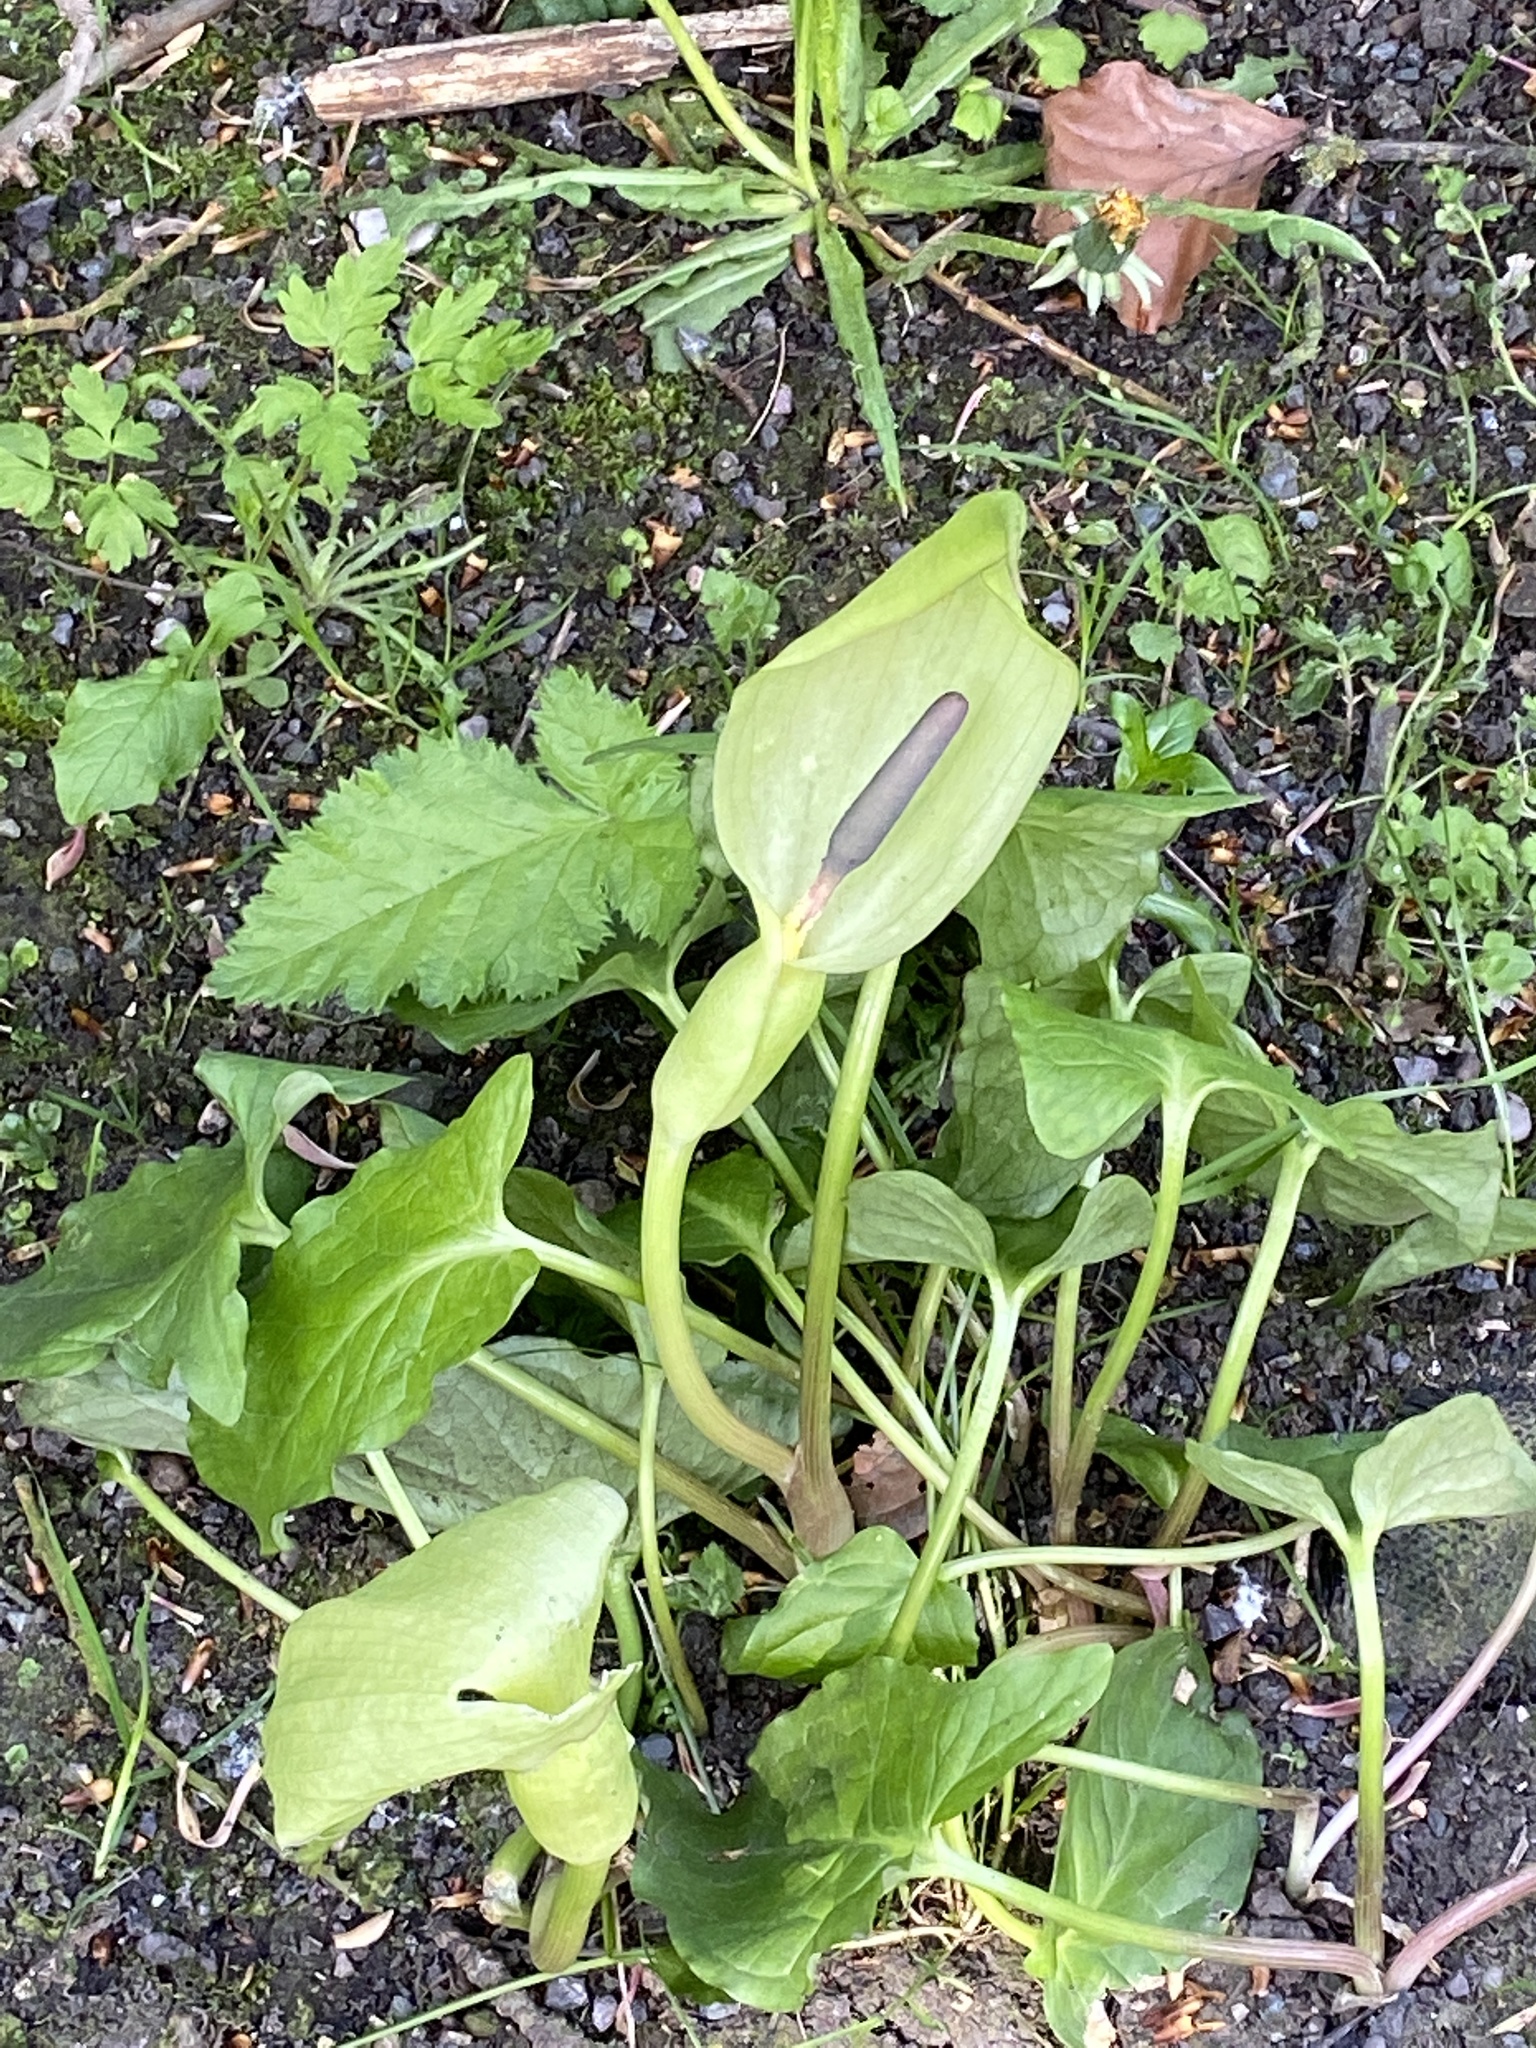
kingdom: Plantae
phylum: Tracheophyta
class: Liliopsida
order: Alismatales
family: Araceae
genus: Arum
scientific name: Arum maculatum
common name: Lords-and-ladies
